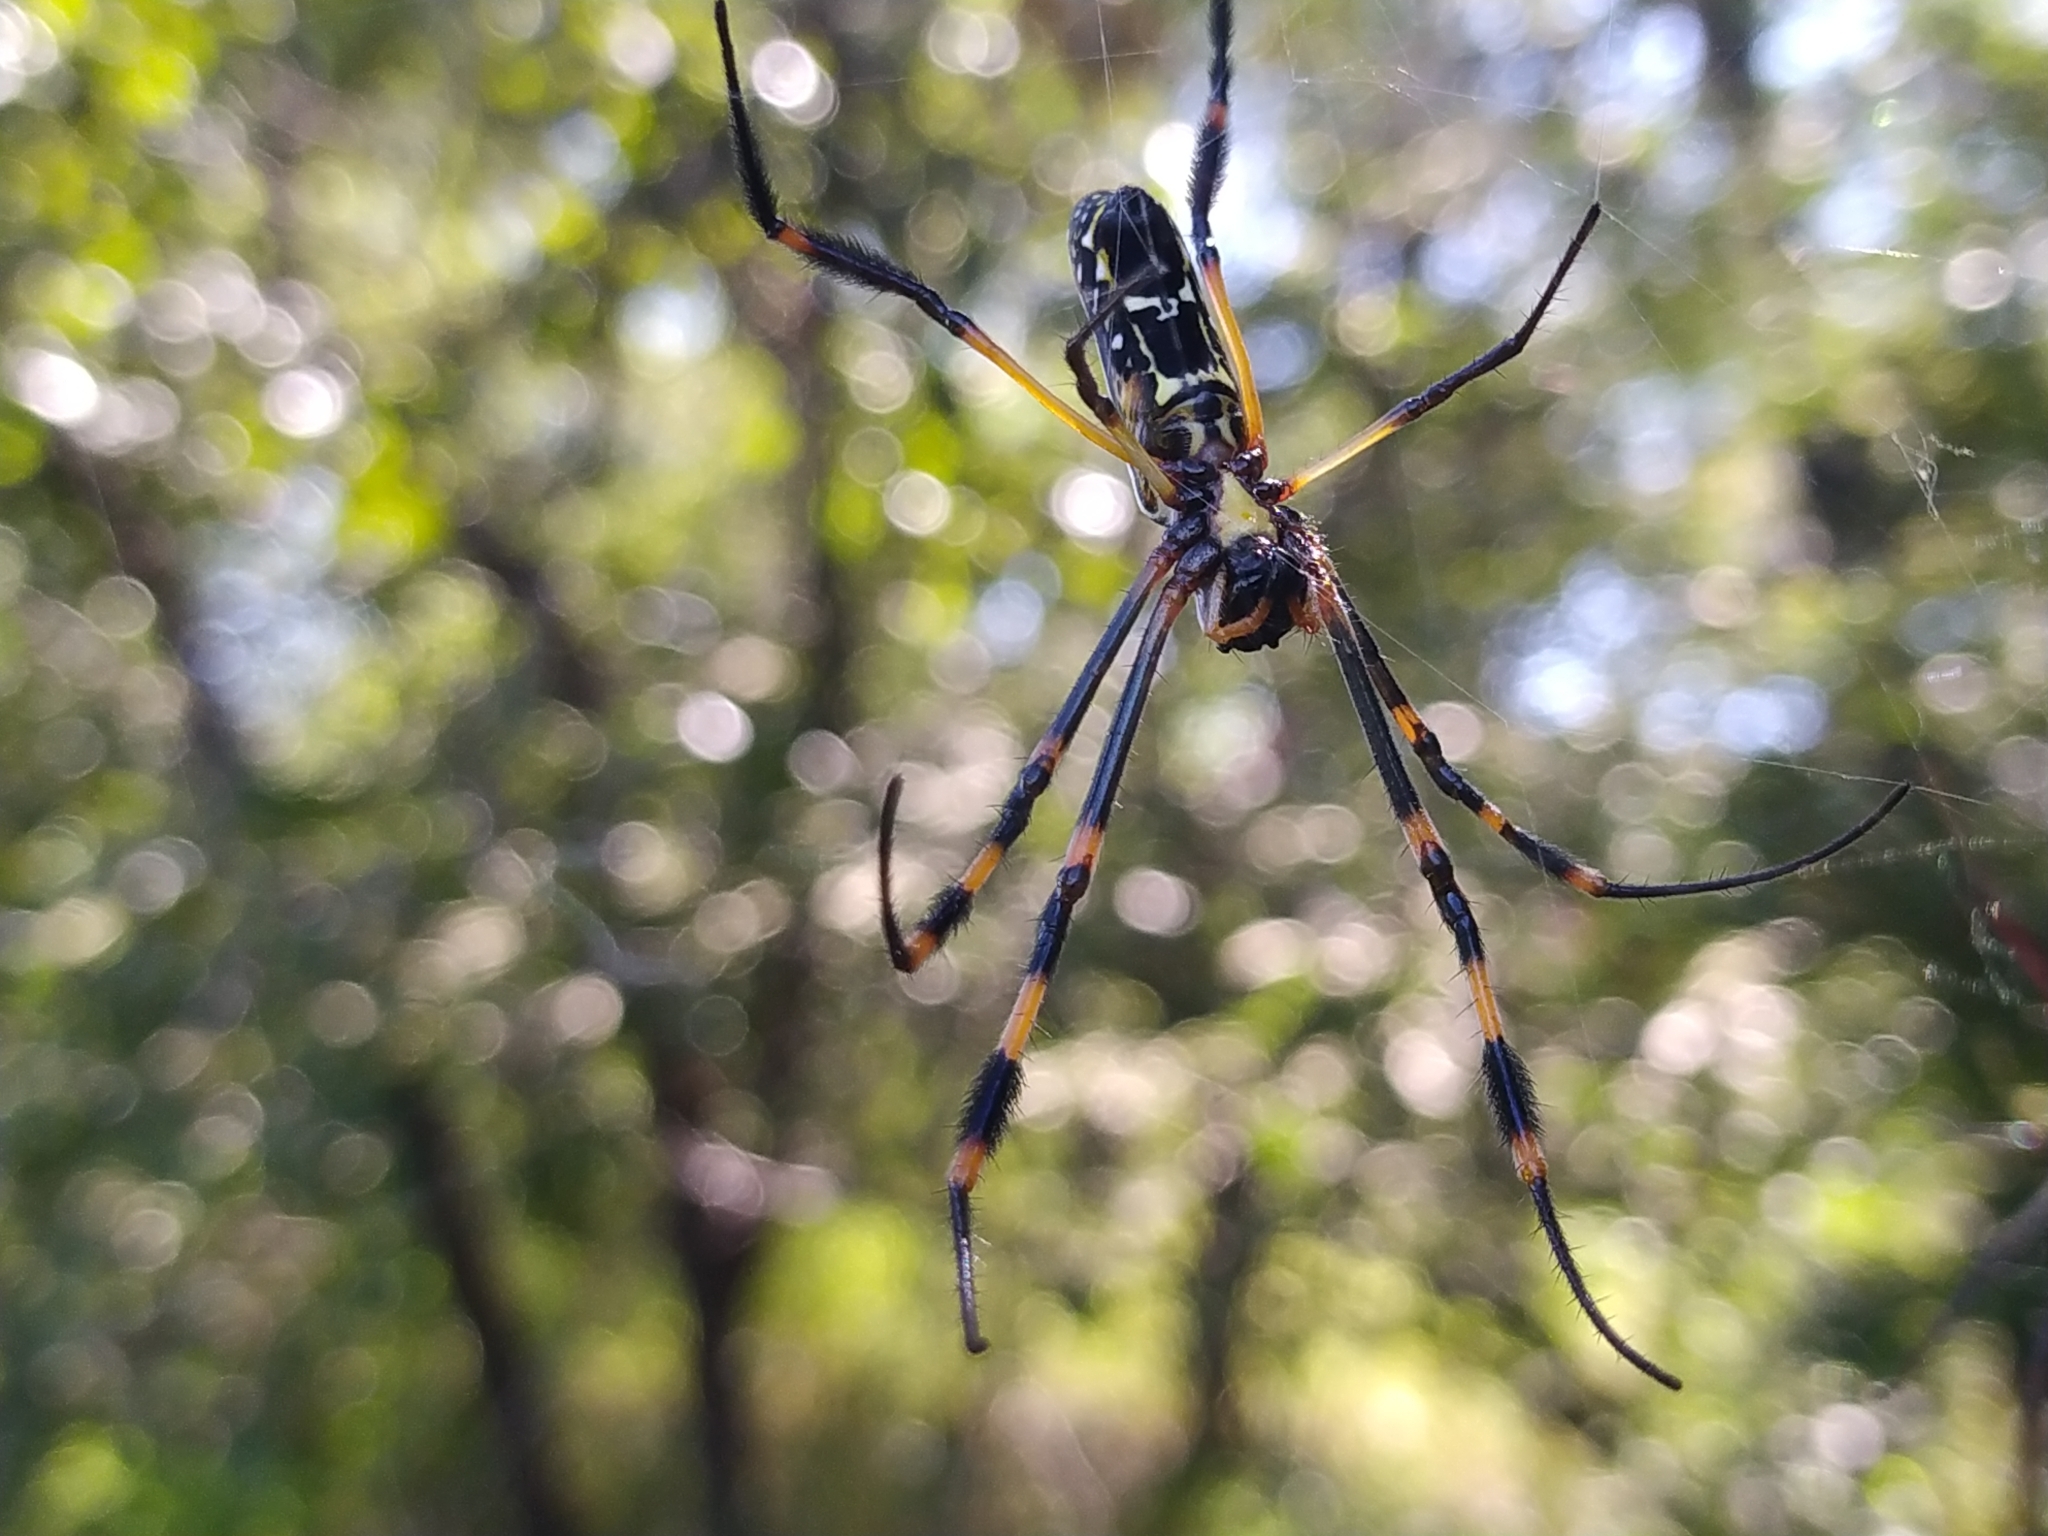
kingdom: Animalia
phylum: Arthropoda
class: Arachnida
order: Araneae
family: Araneidae
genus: Trichonephila
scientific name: Trichonephila senegalensis
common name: Banded golden orb weaver
